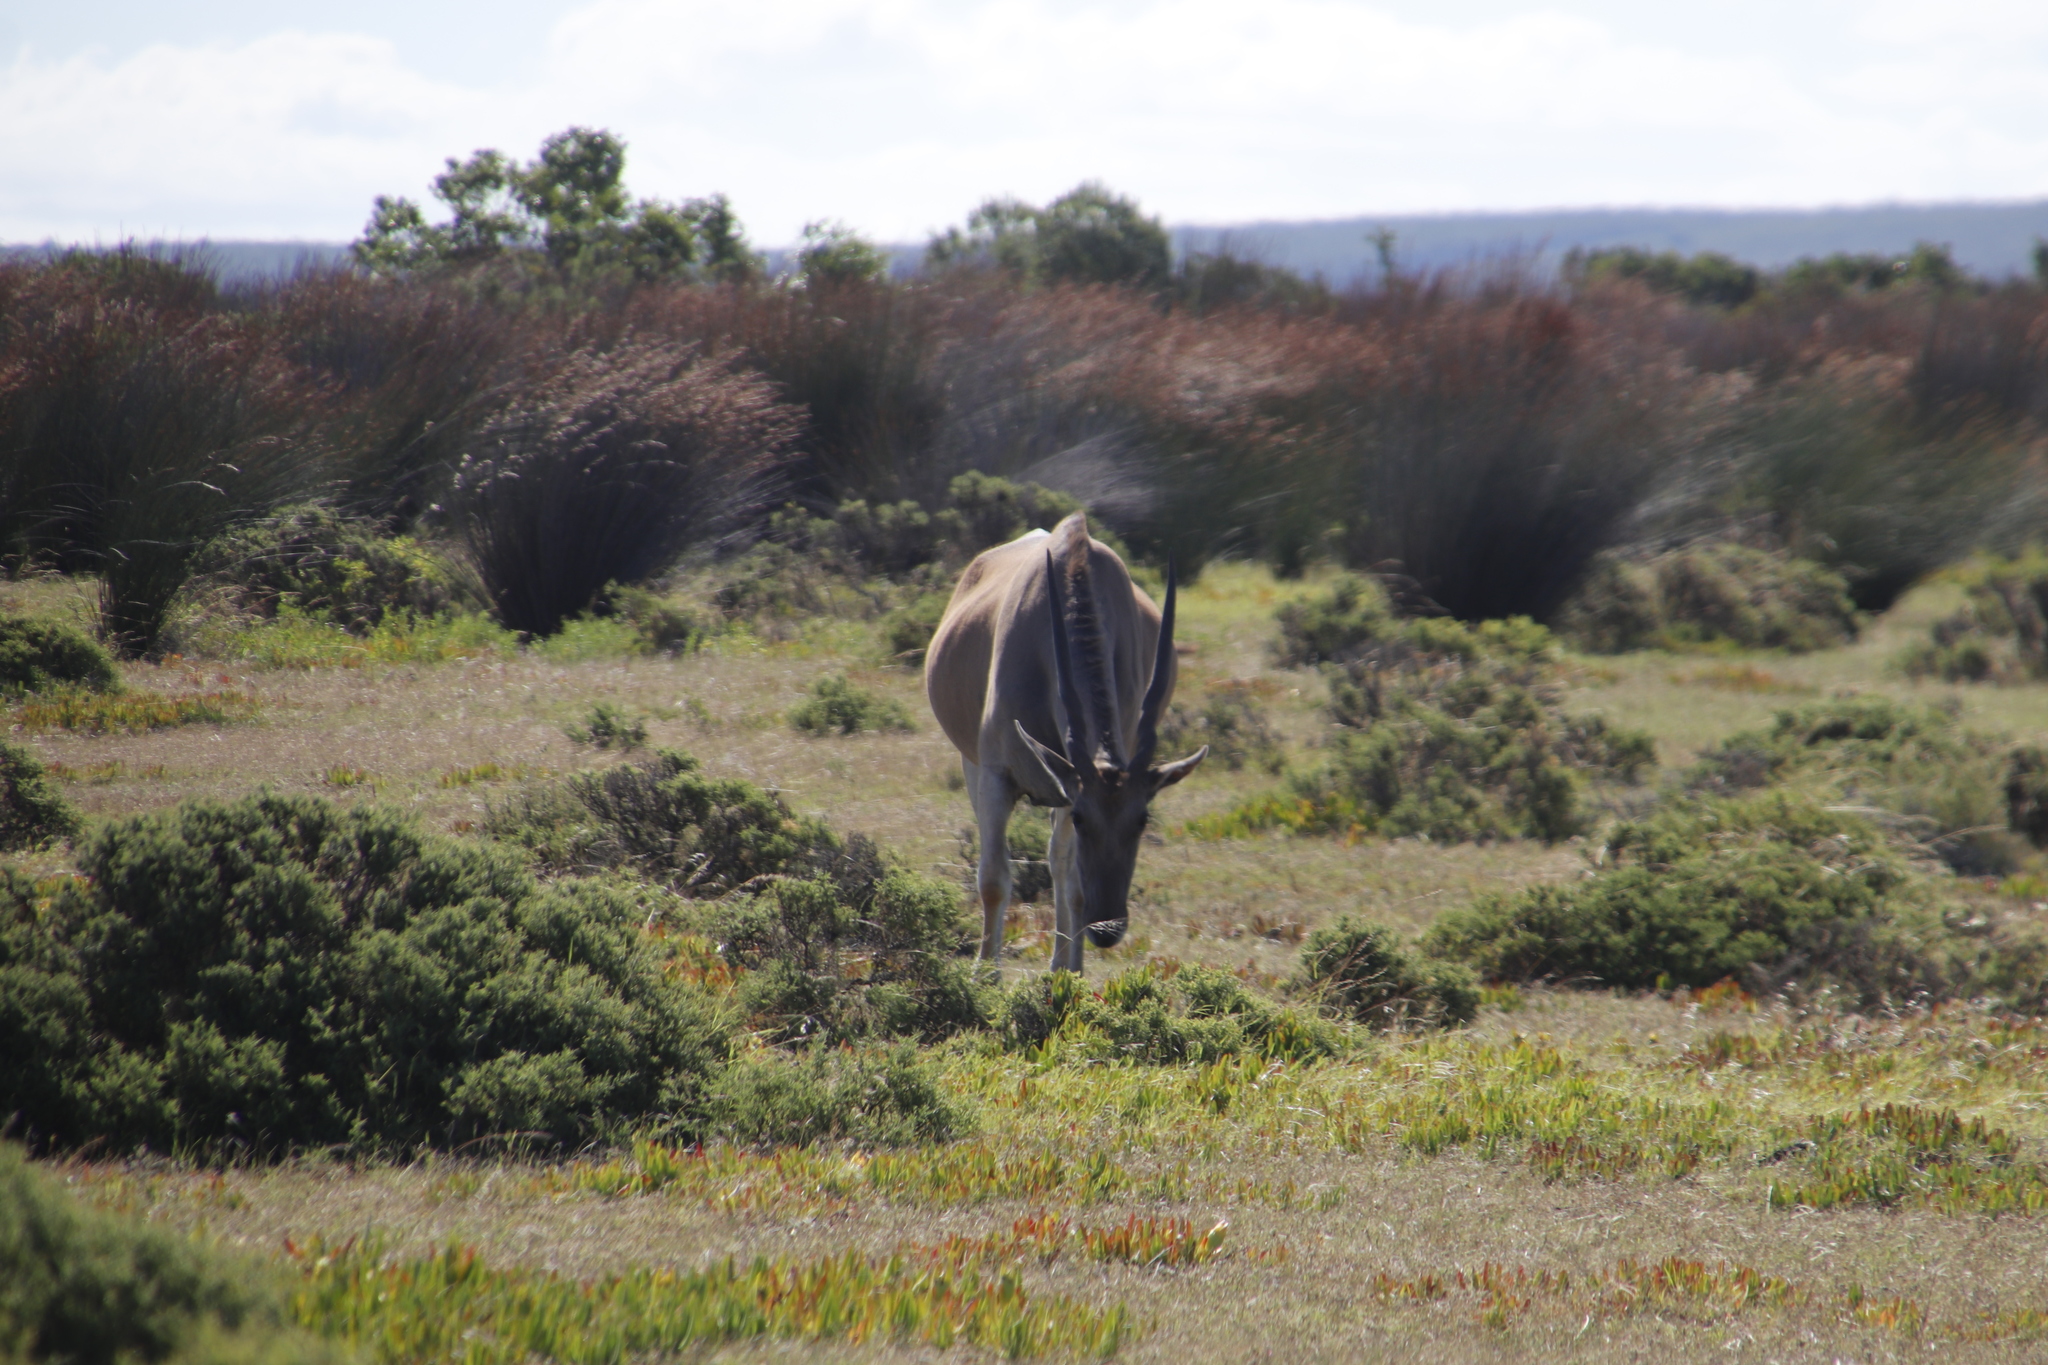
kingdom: Animalia
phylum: Chordata
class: Mammalia
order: Artiodactyla
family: Bovidae
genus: Taurotragus
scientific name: Taurotragus oryx
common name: Common eland
